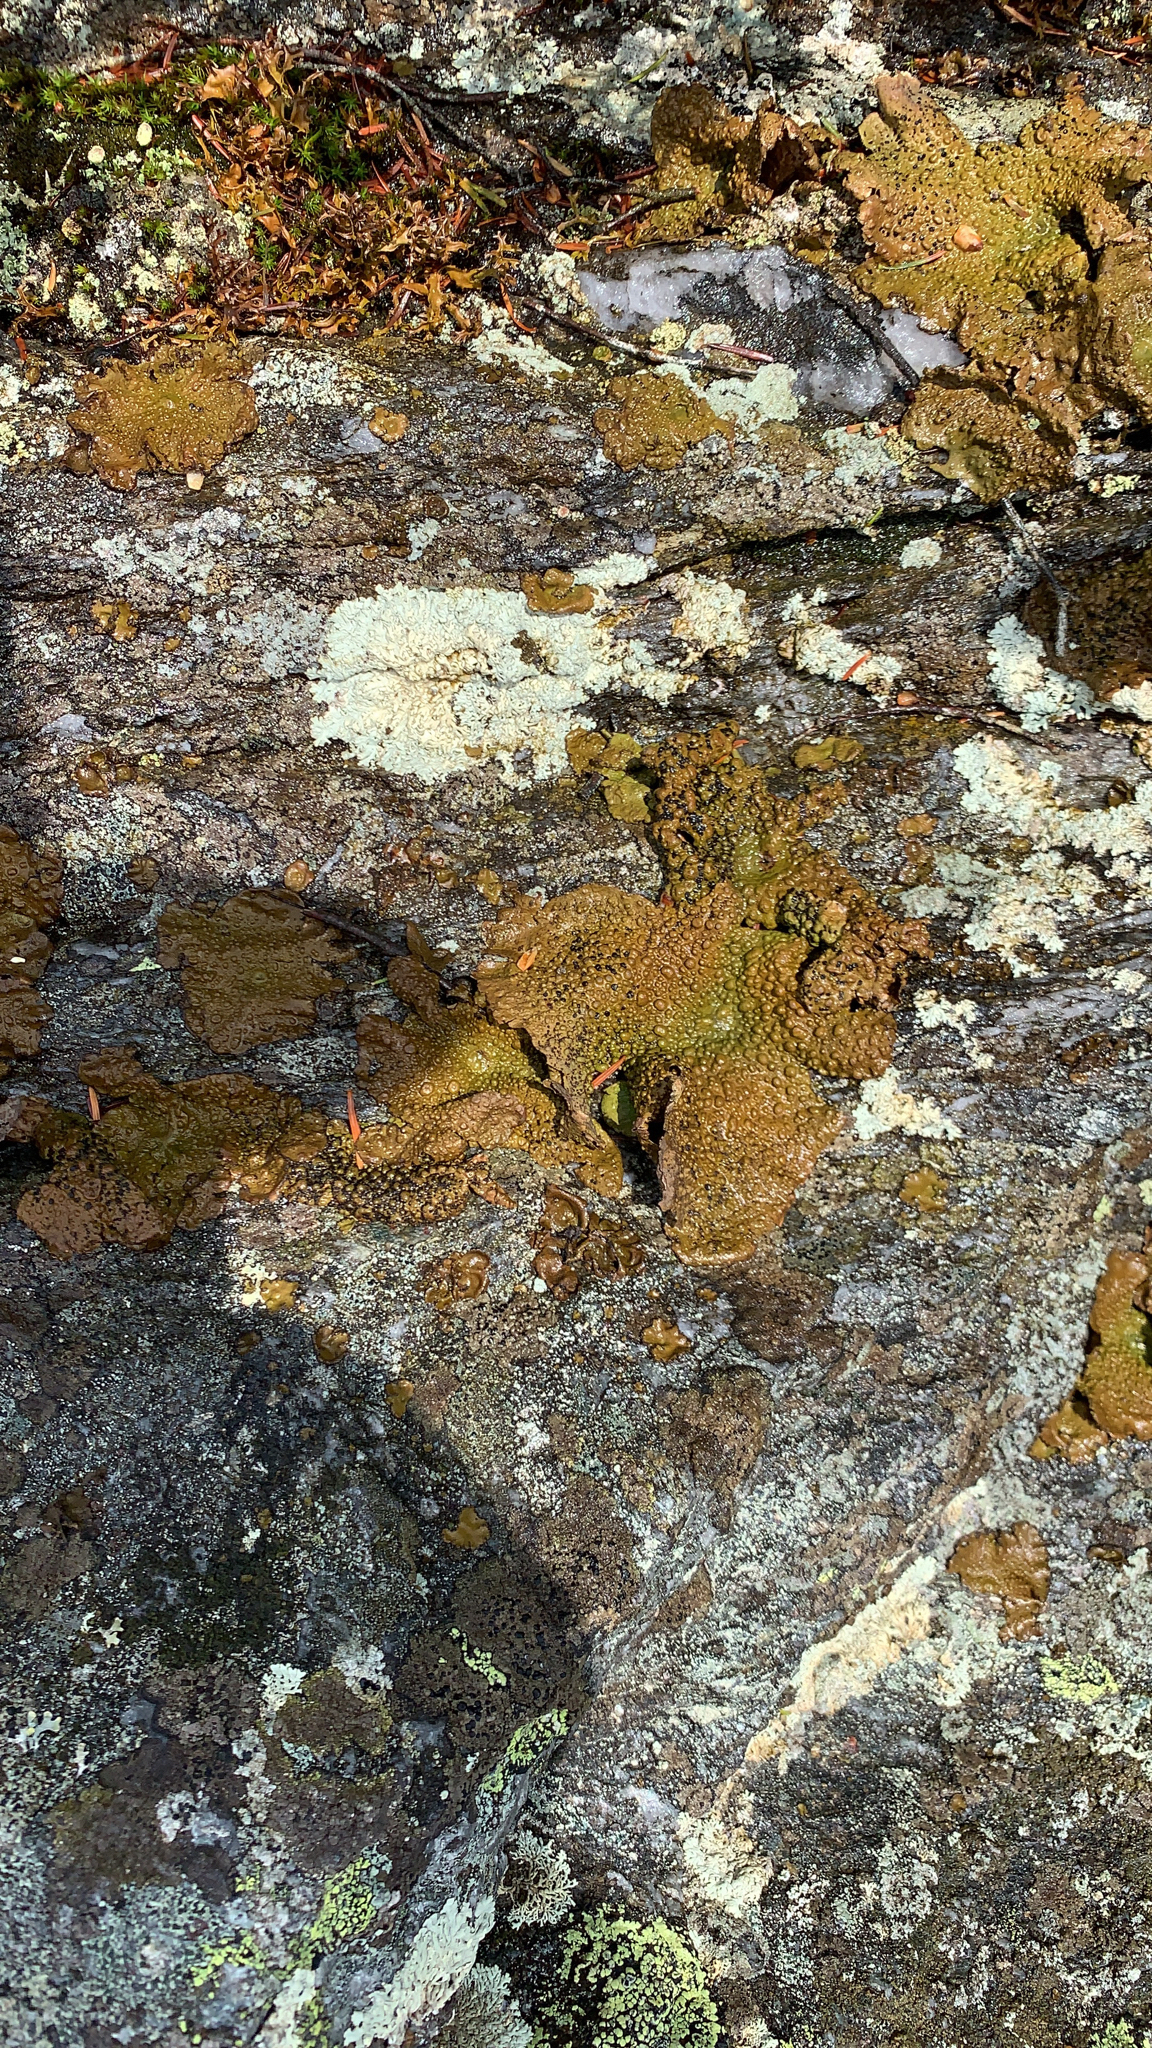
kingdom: Fungi
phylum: Ascomycota
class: Lecanoromycetes
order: Umbilicariales
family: Umbilicariaceae
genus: Lasallia
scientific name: Lasallia papulosa
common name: Common toadskin lichen
